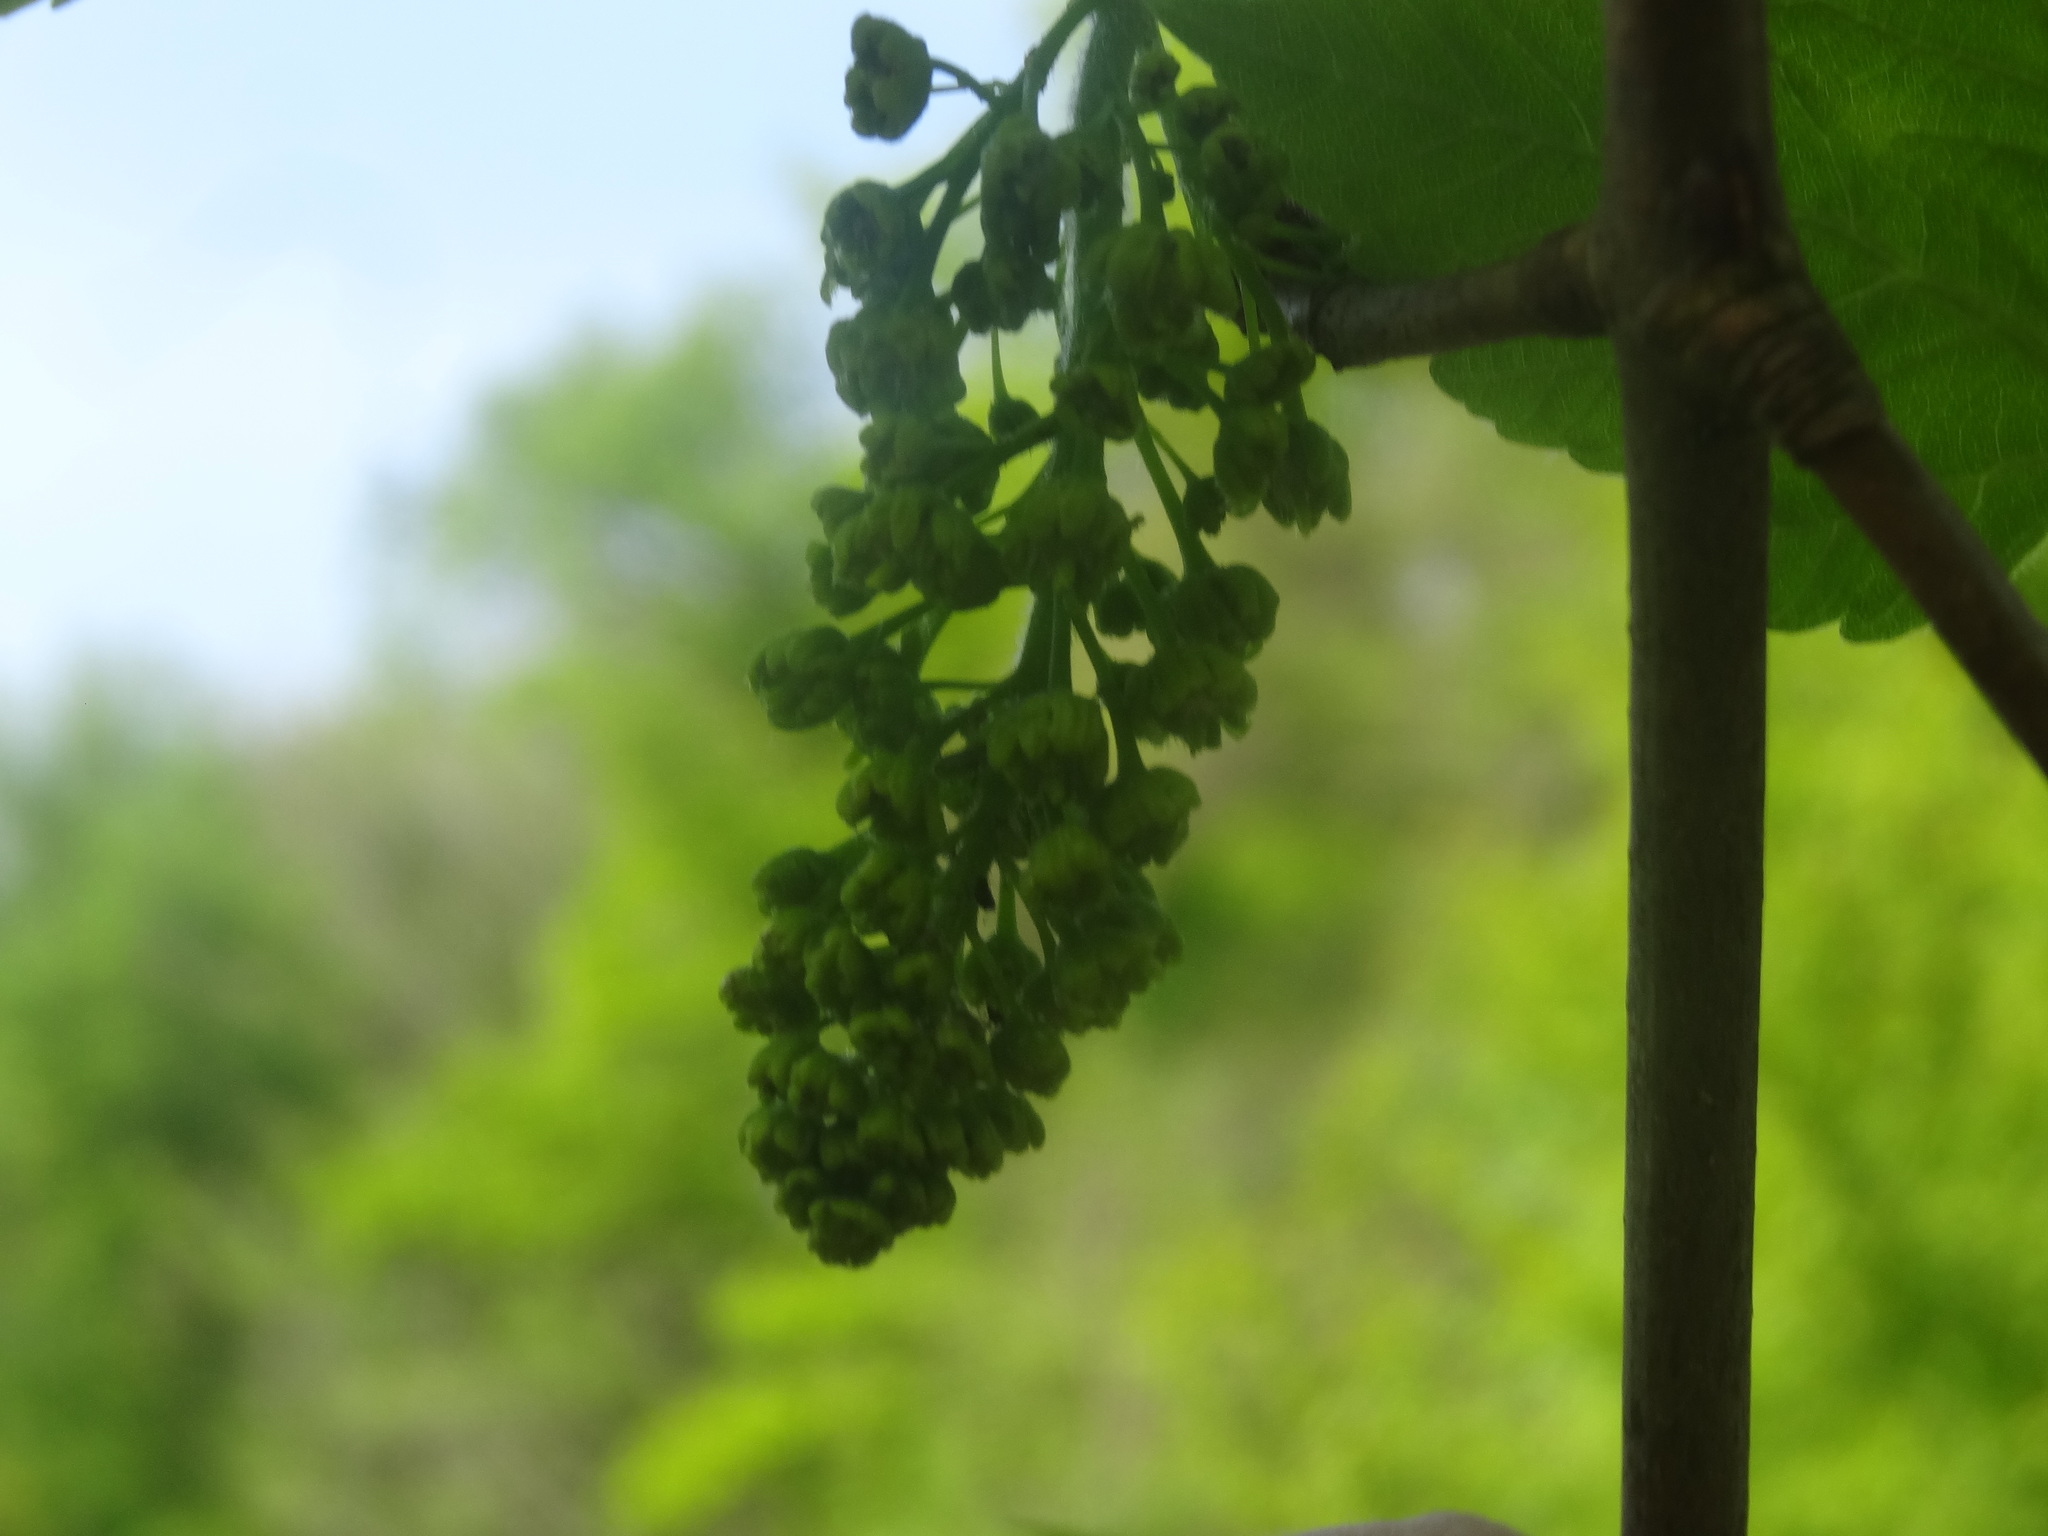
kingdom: Plantae
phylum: Tracheophyta
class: Magnoliopsida
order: Sapindales
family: Sapindaceae
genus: Acer
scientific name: Acer pseudoplatanus
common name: Sycamore
